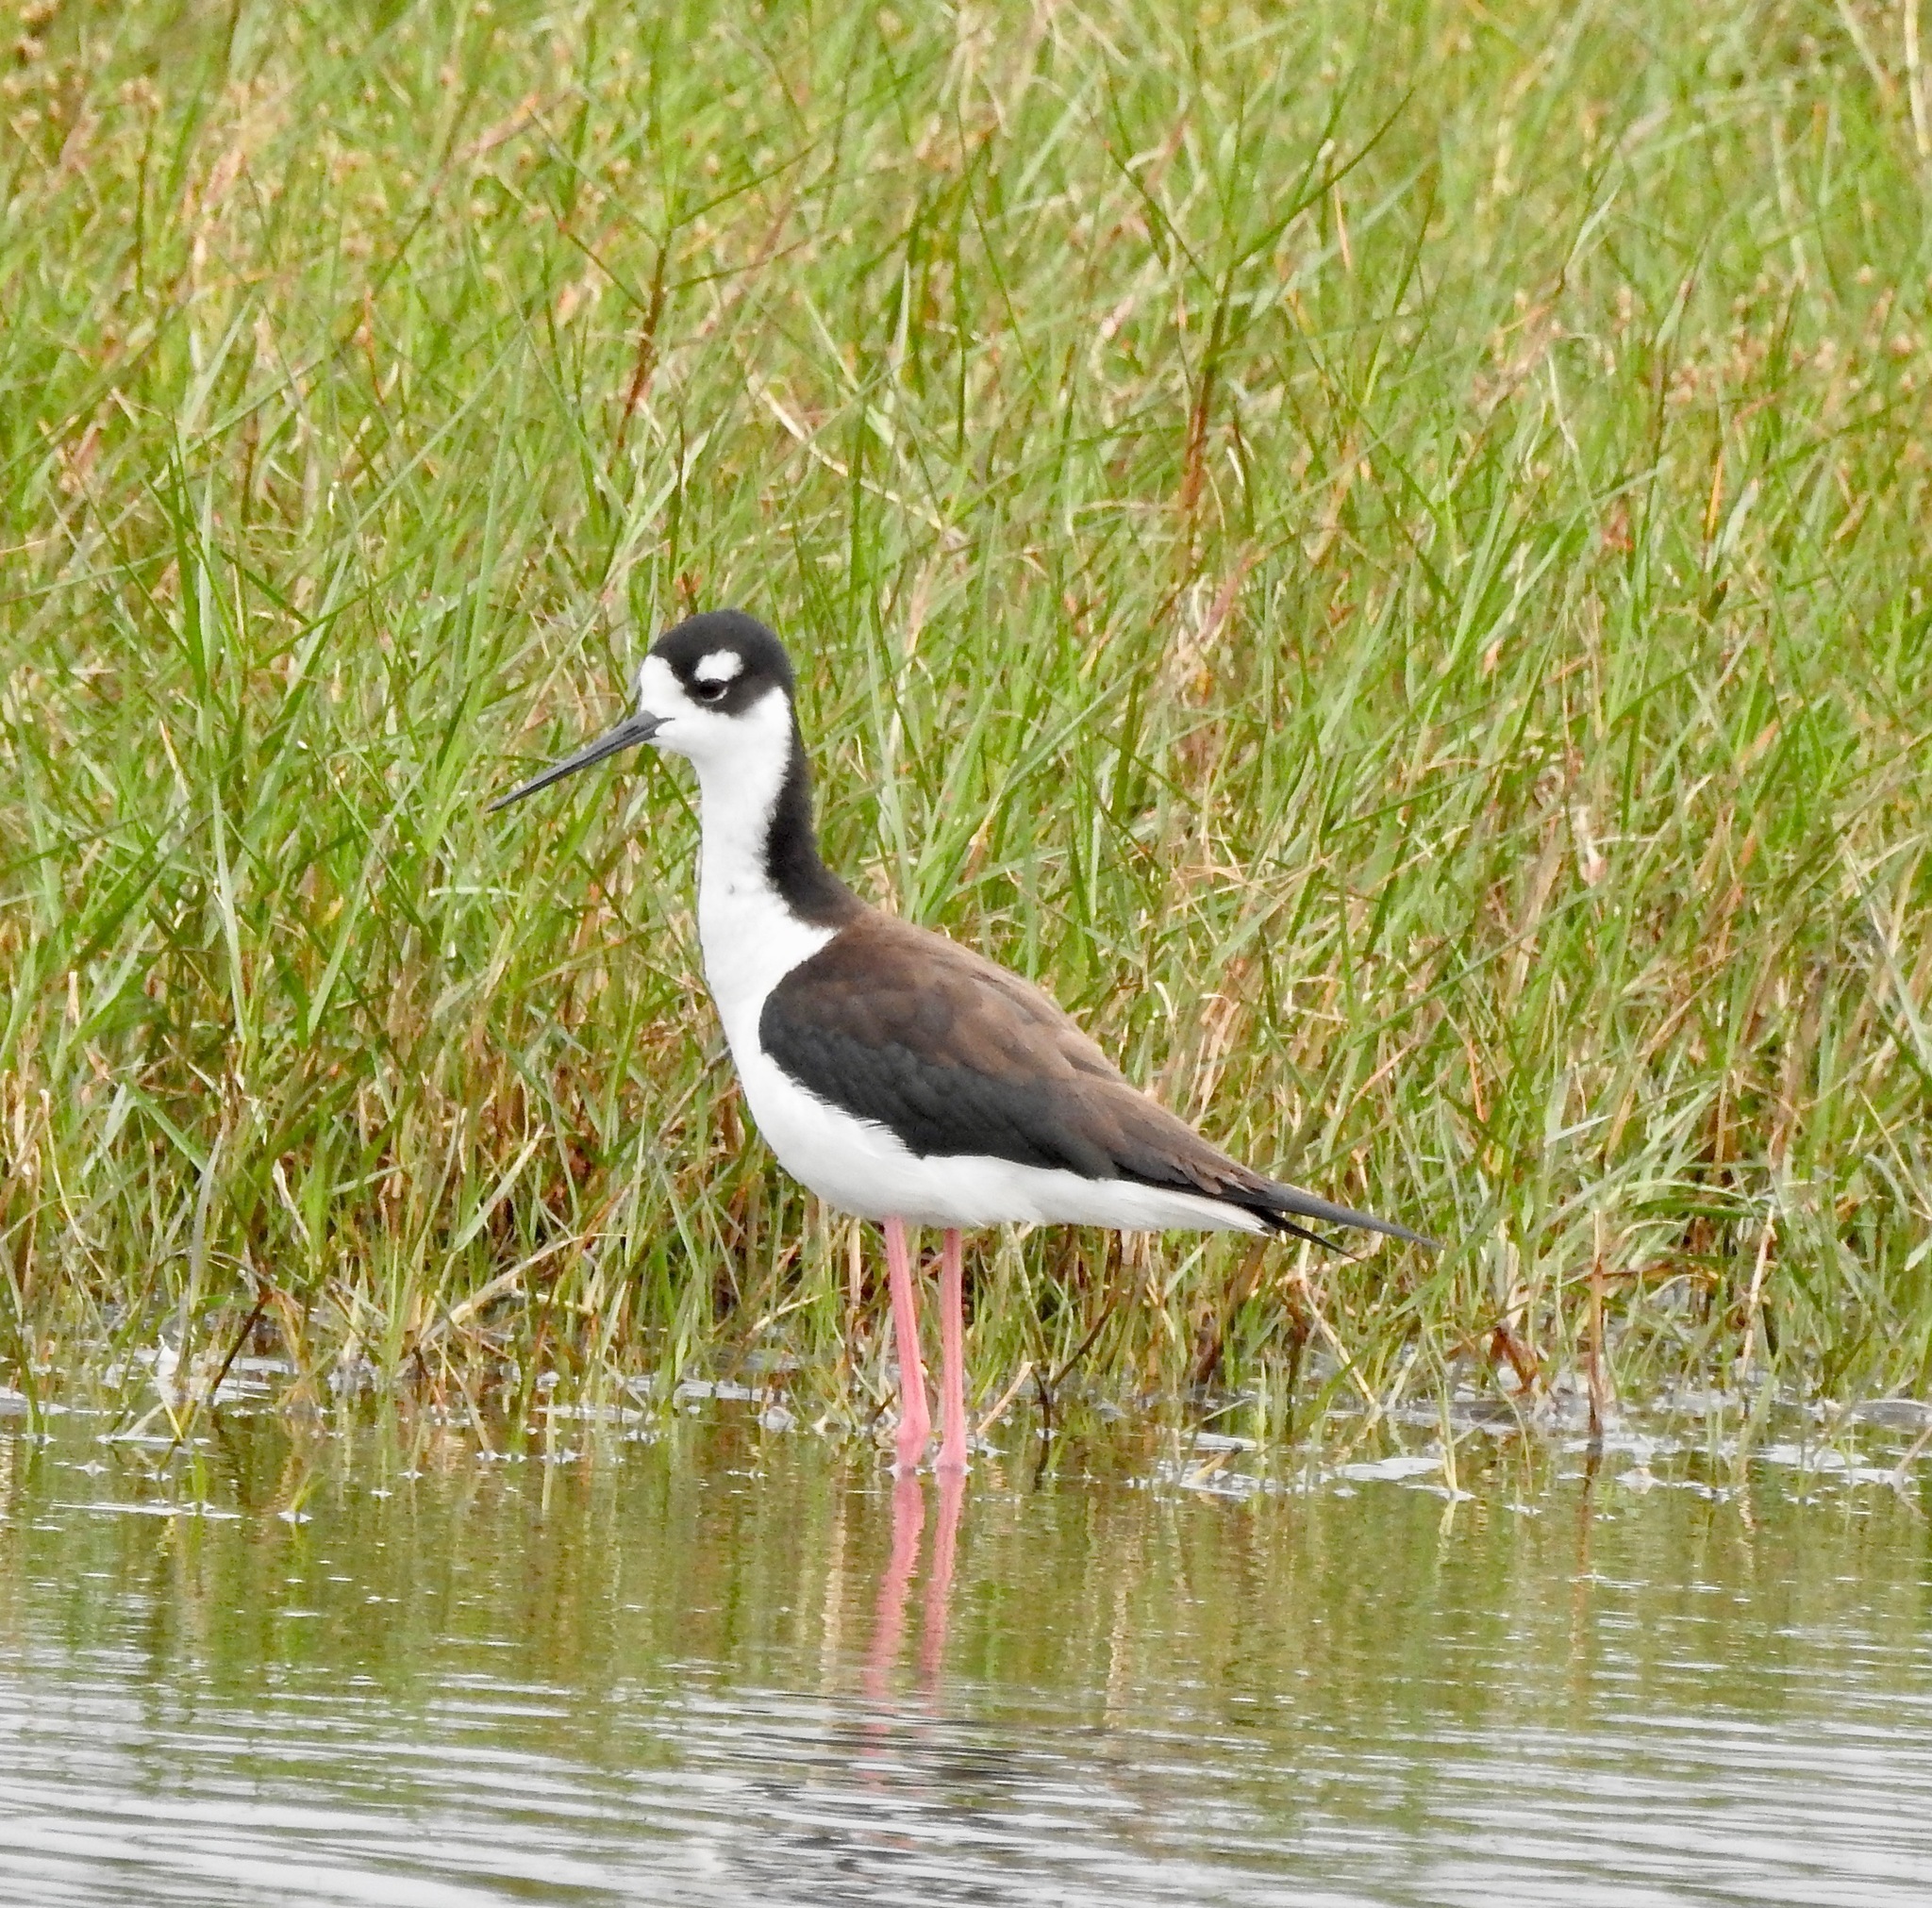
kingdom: Animalia
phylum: Chordata
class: Aves
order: Charadriiformes
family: Recurvirostridae
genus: Himantopus
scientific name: Himantopus mexicanus
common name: Black-necked stilt
